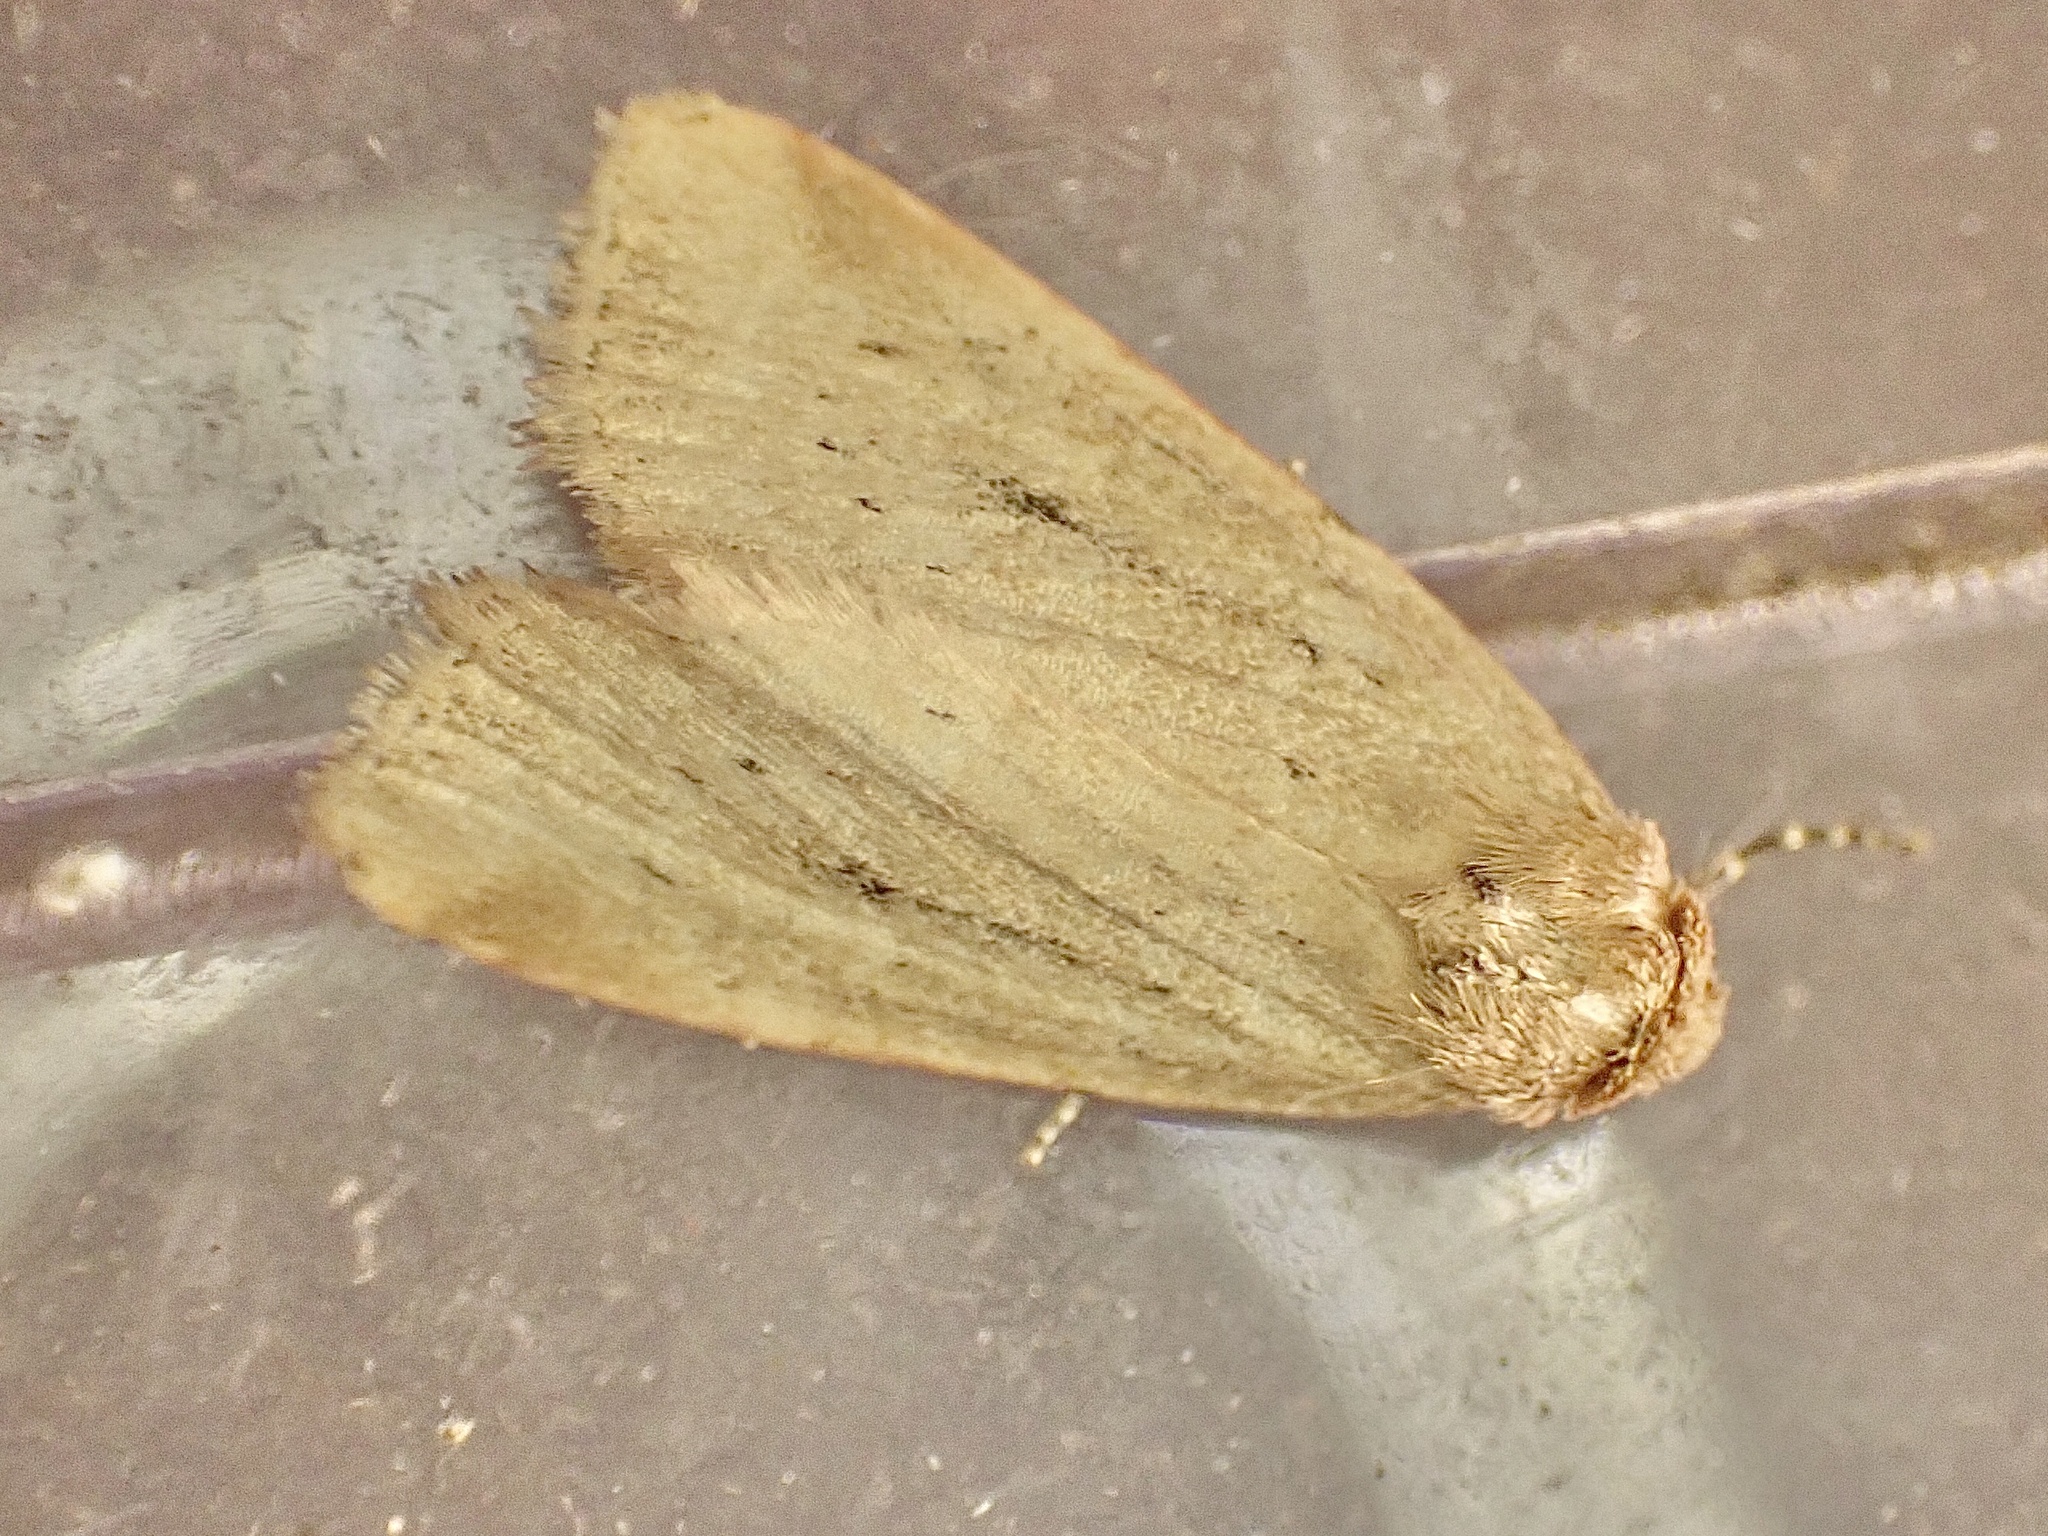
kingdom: Animalia
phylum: Arthropoda
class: Insecta
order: Lepidoptera
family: Noctuidae
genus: Photedes
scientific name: Photedes minima
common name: Small dotted buff
